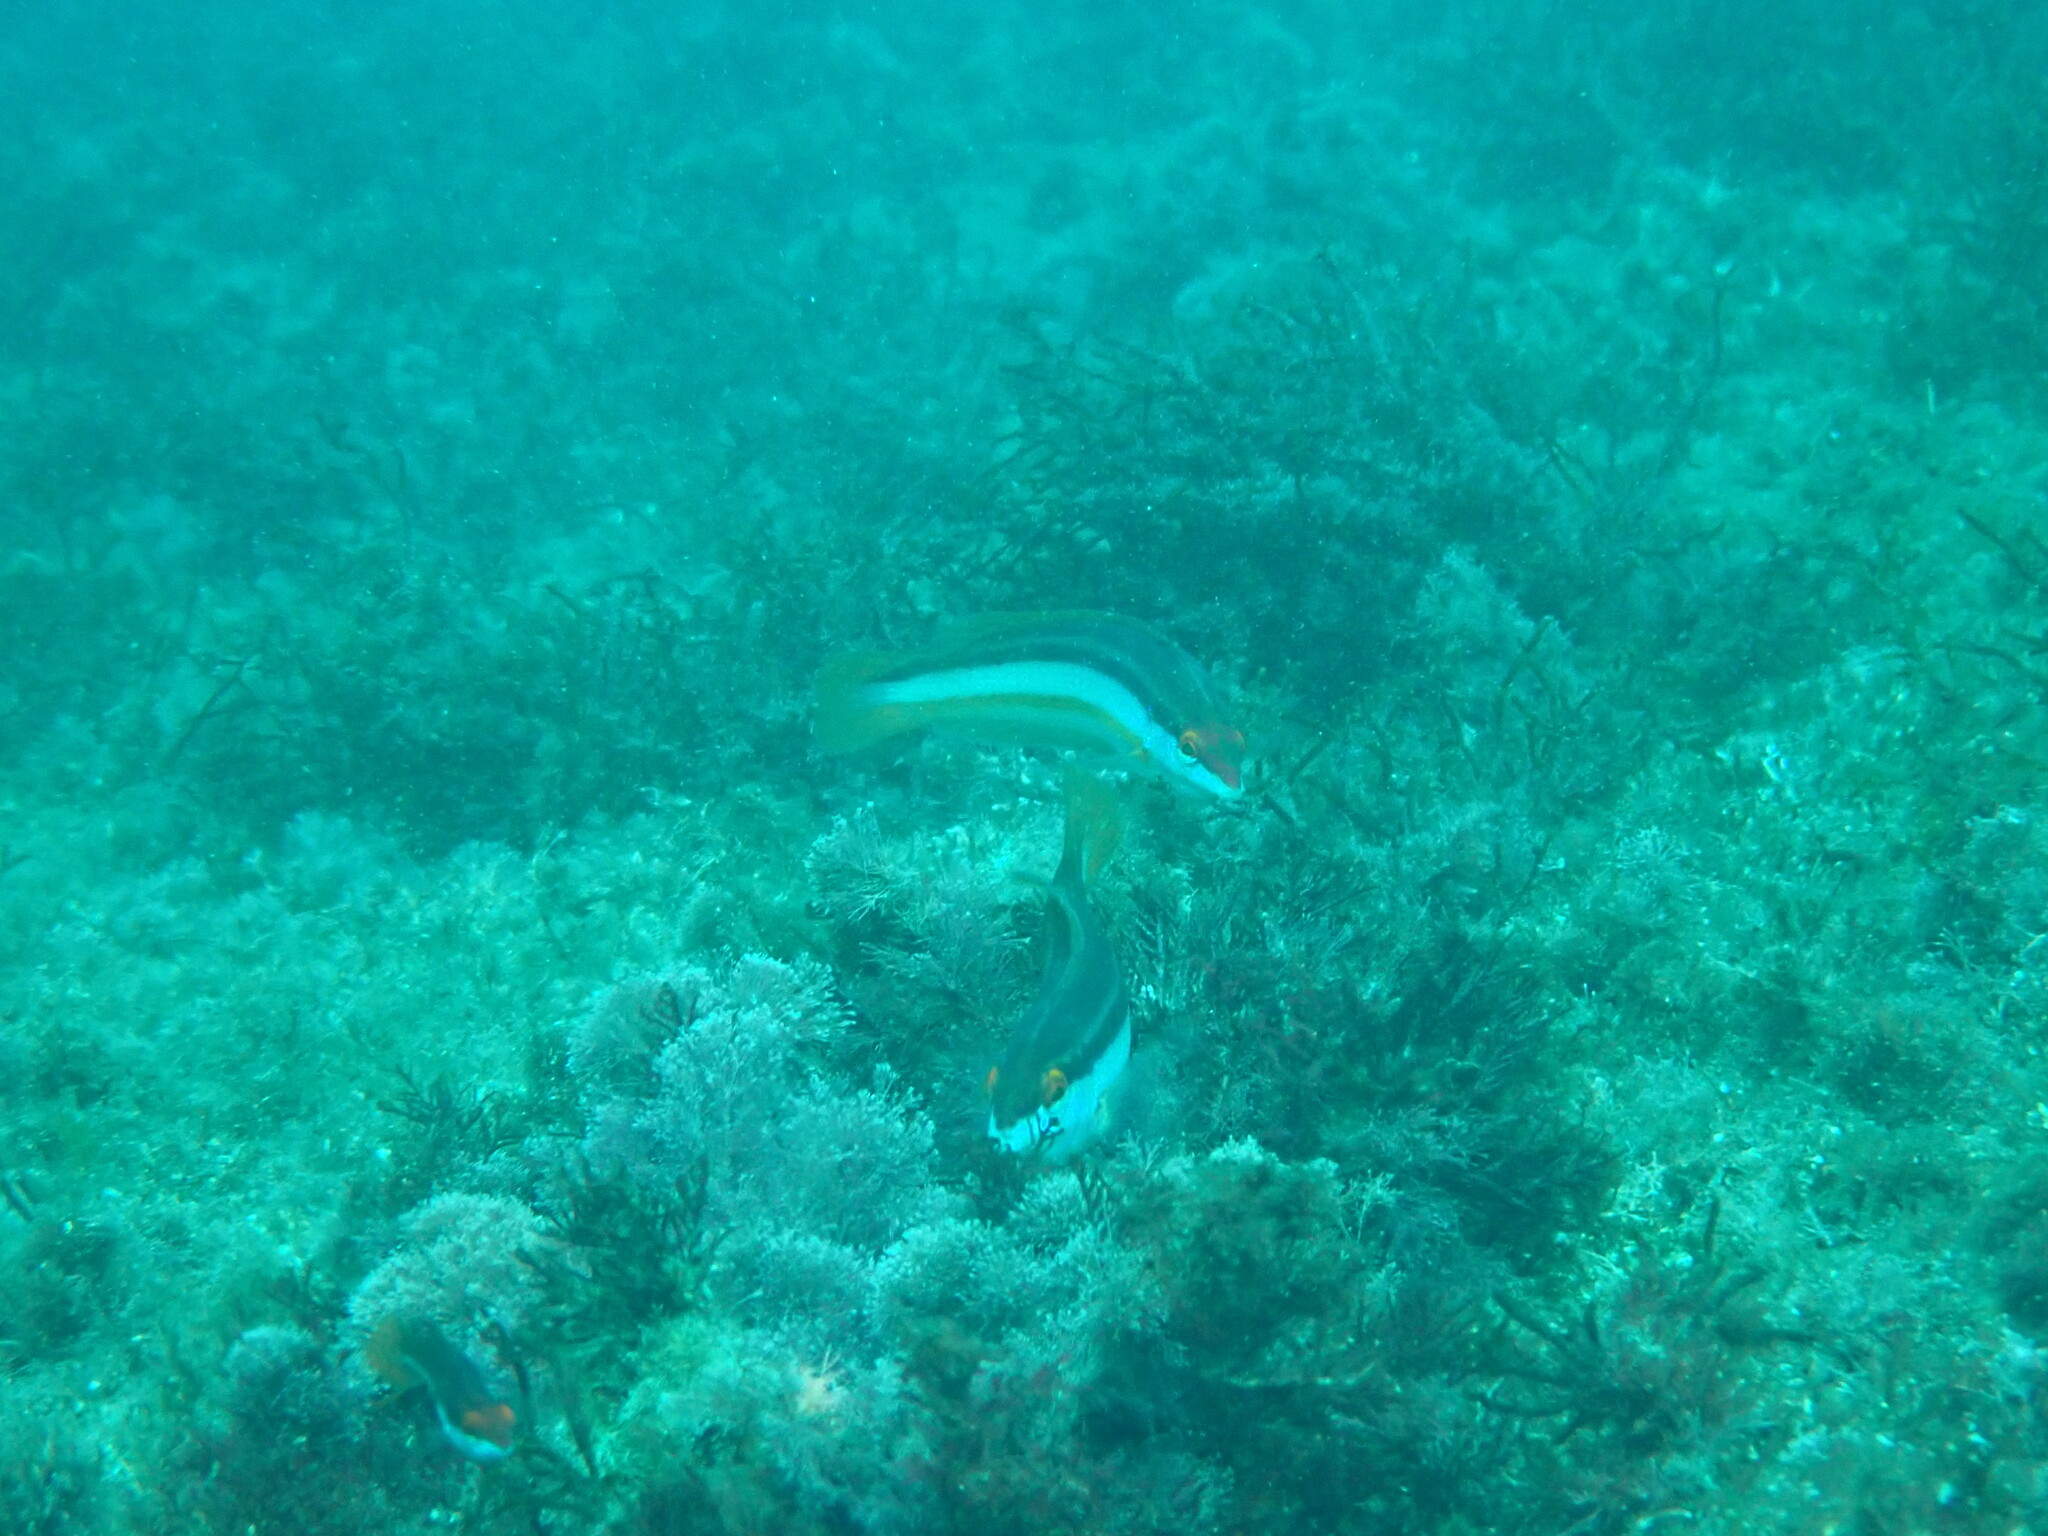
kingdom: Animalia
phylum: Chordata
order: Perciformes
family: Labridae
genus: Coris
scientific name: Coris
